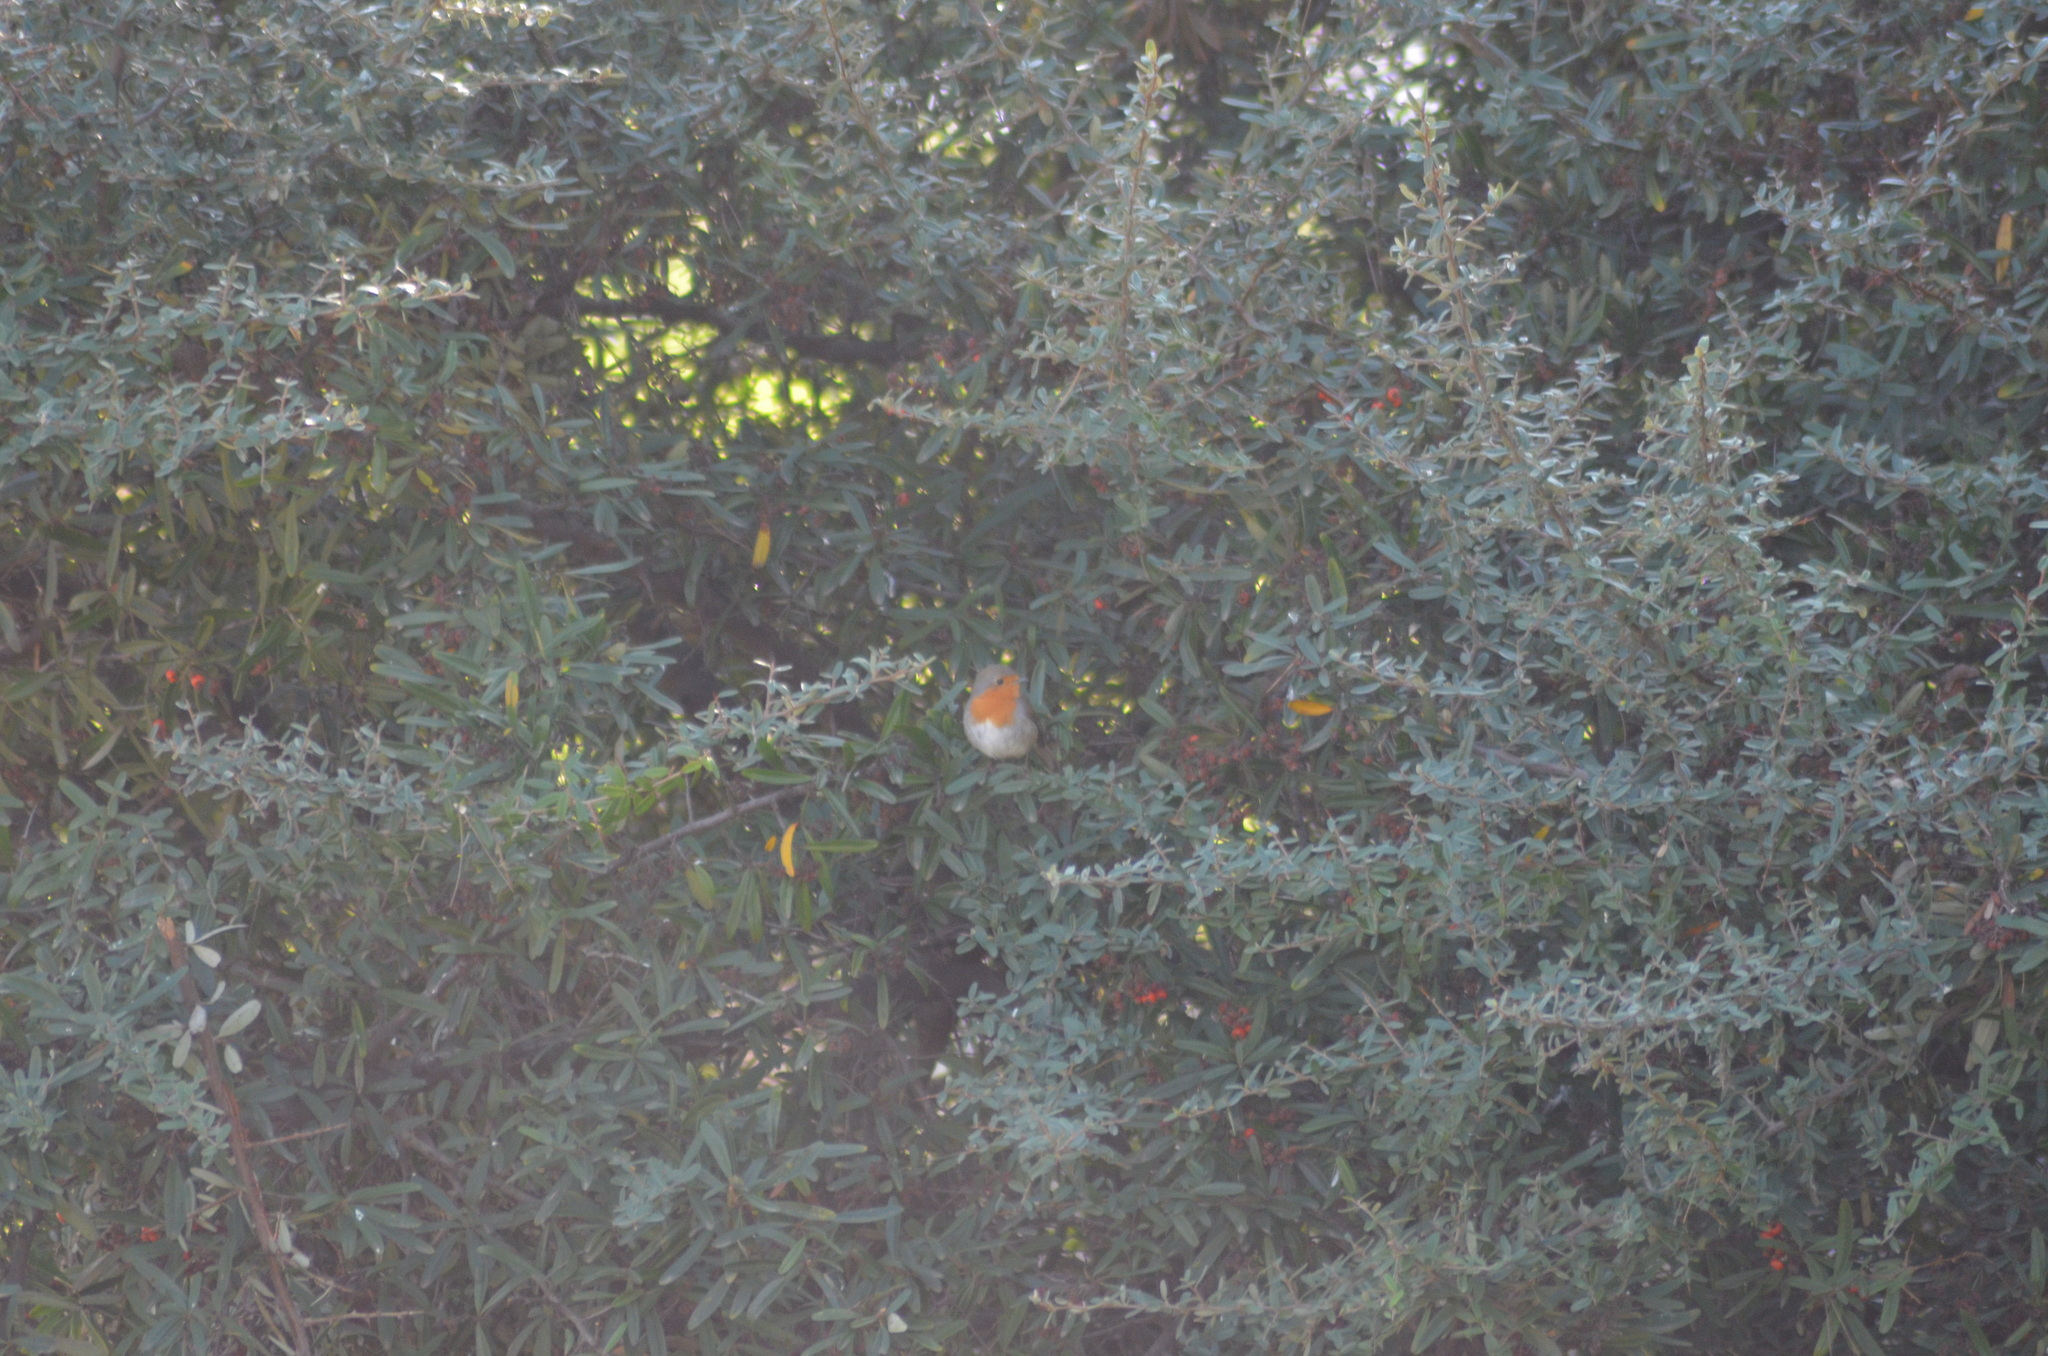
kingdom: Animalia
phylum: Chordata
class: Aves
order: Passeriformes
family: Muscicapidae
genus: Erithacus
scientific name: Erithacus rubecula
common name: European robin
